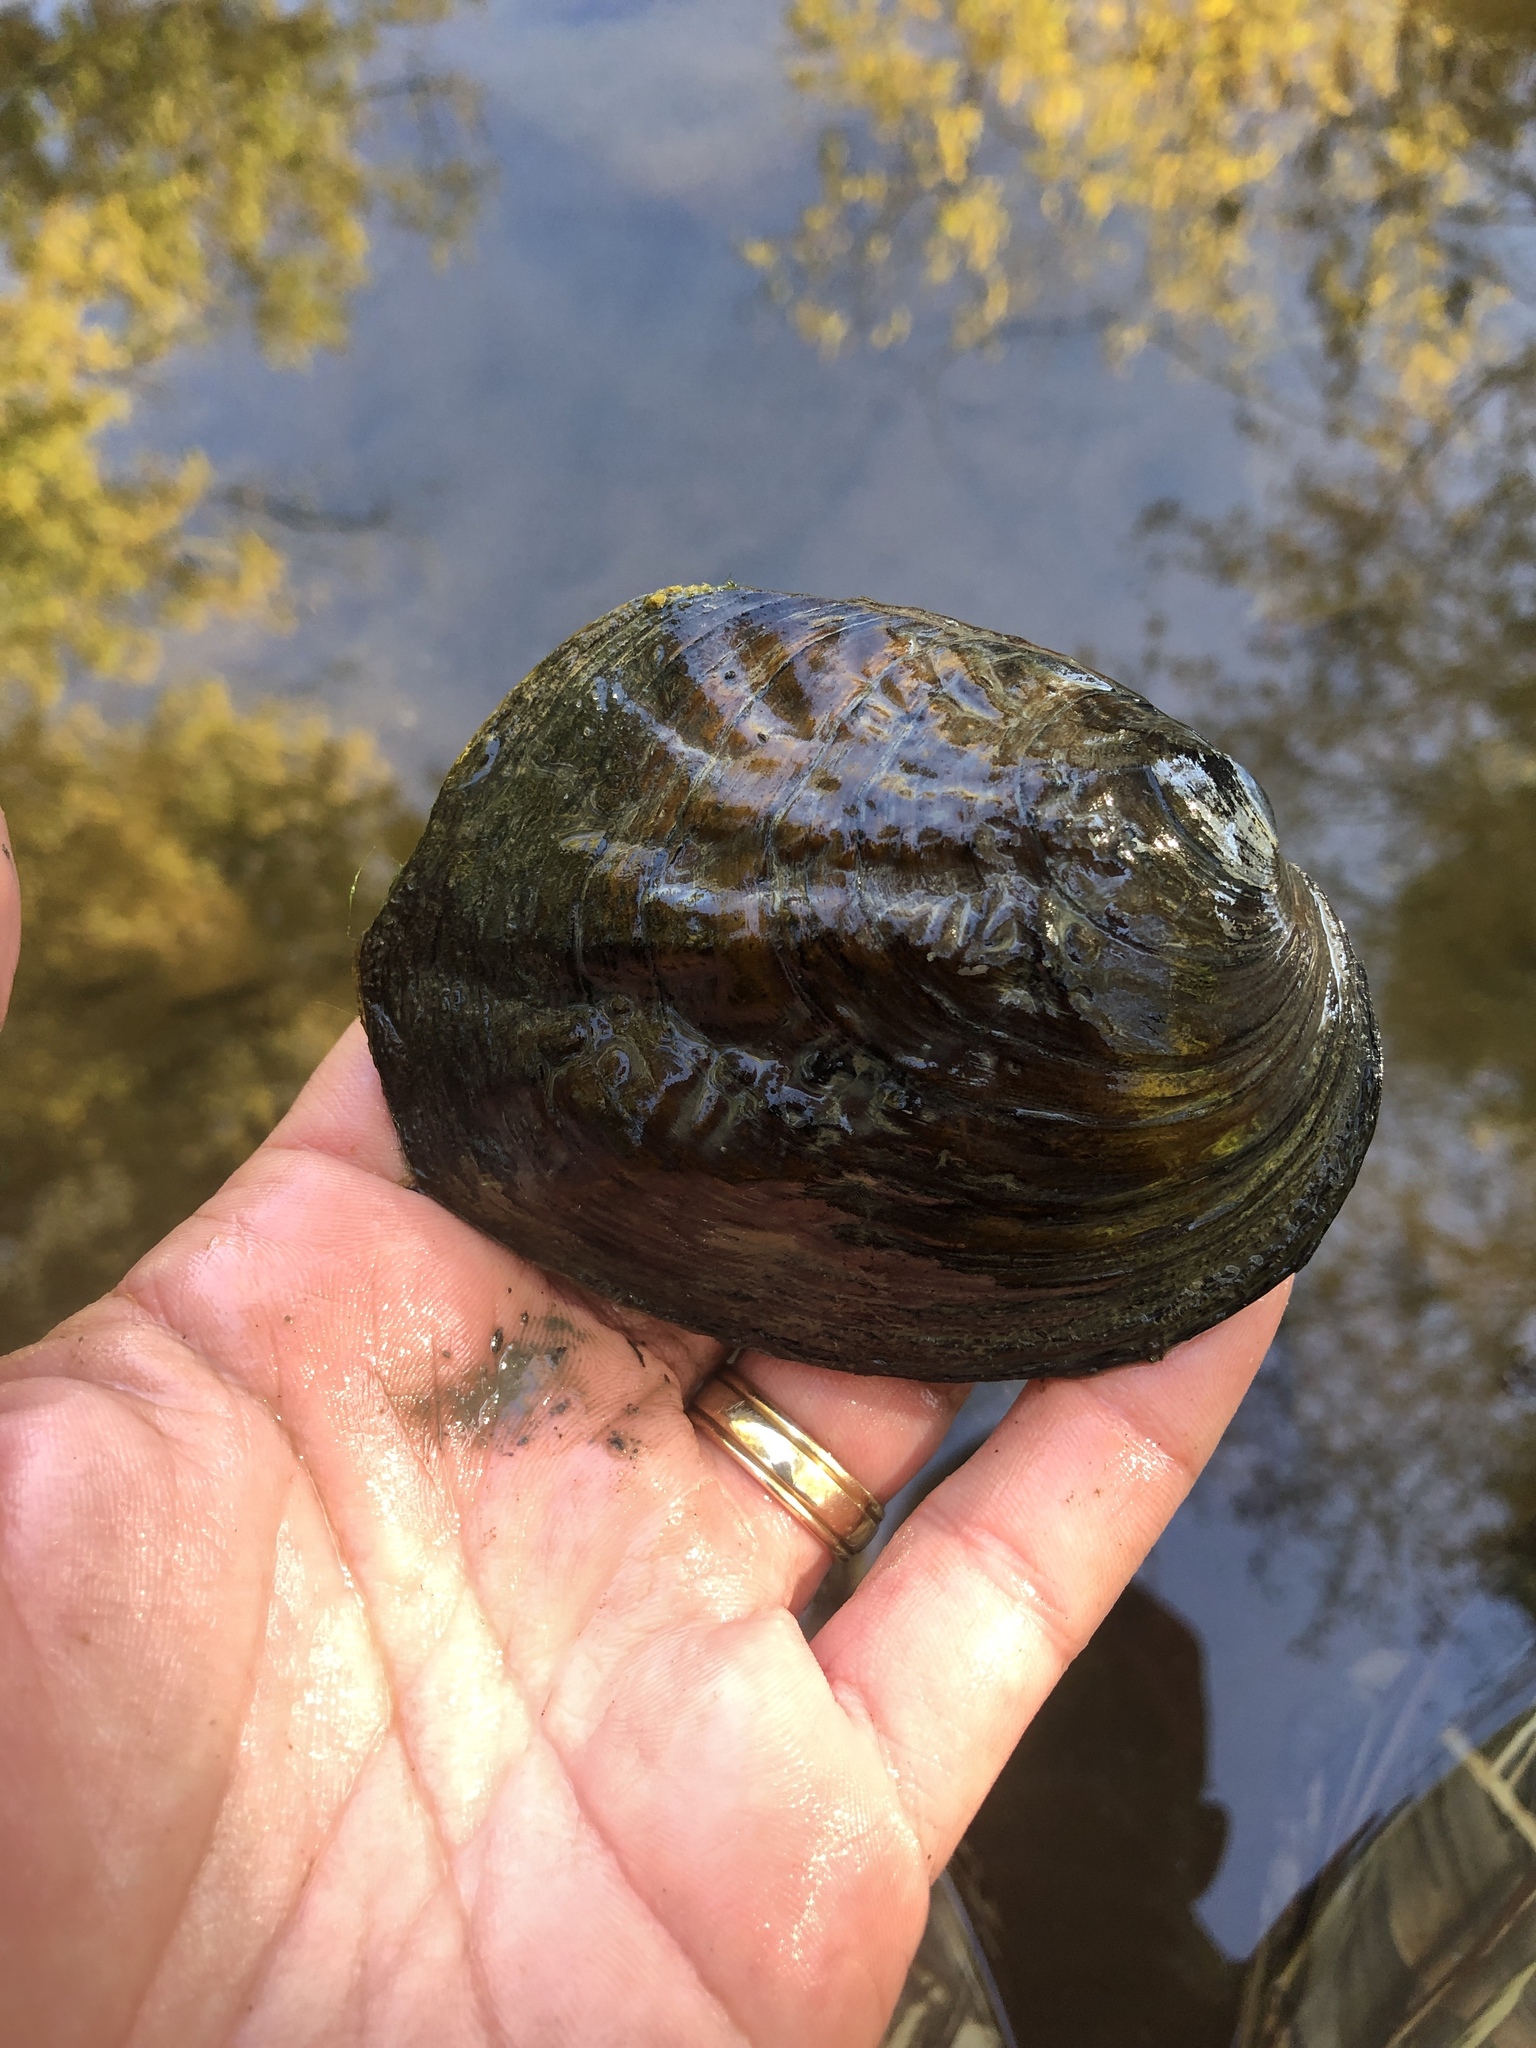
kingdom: Animalia
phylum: Mollusca
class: Bivalvia
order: Unionida
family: Unionidae
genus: Amblema
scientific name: Amblema plicata
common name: Threeridge
